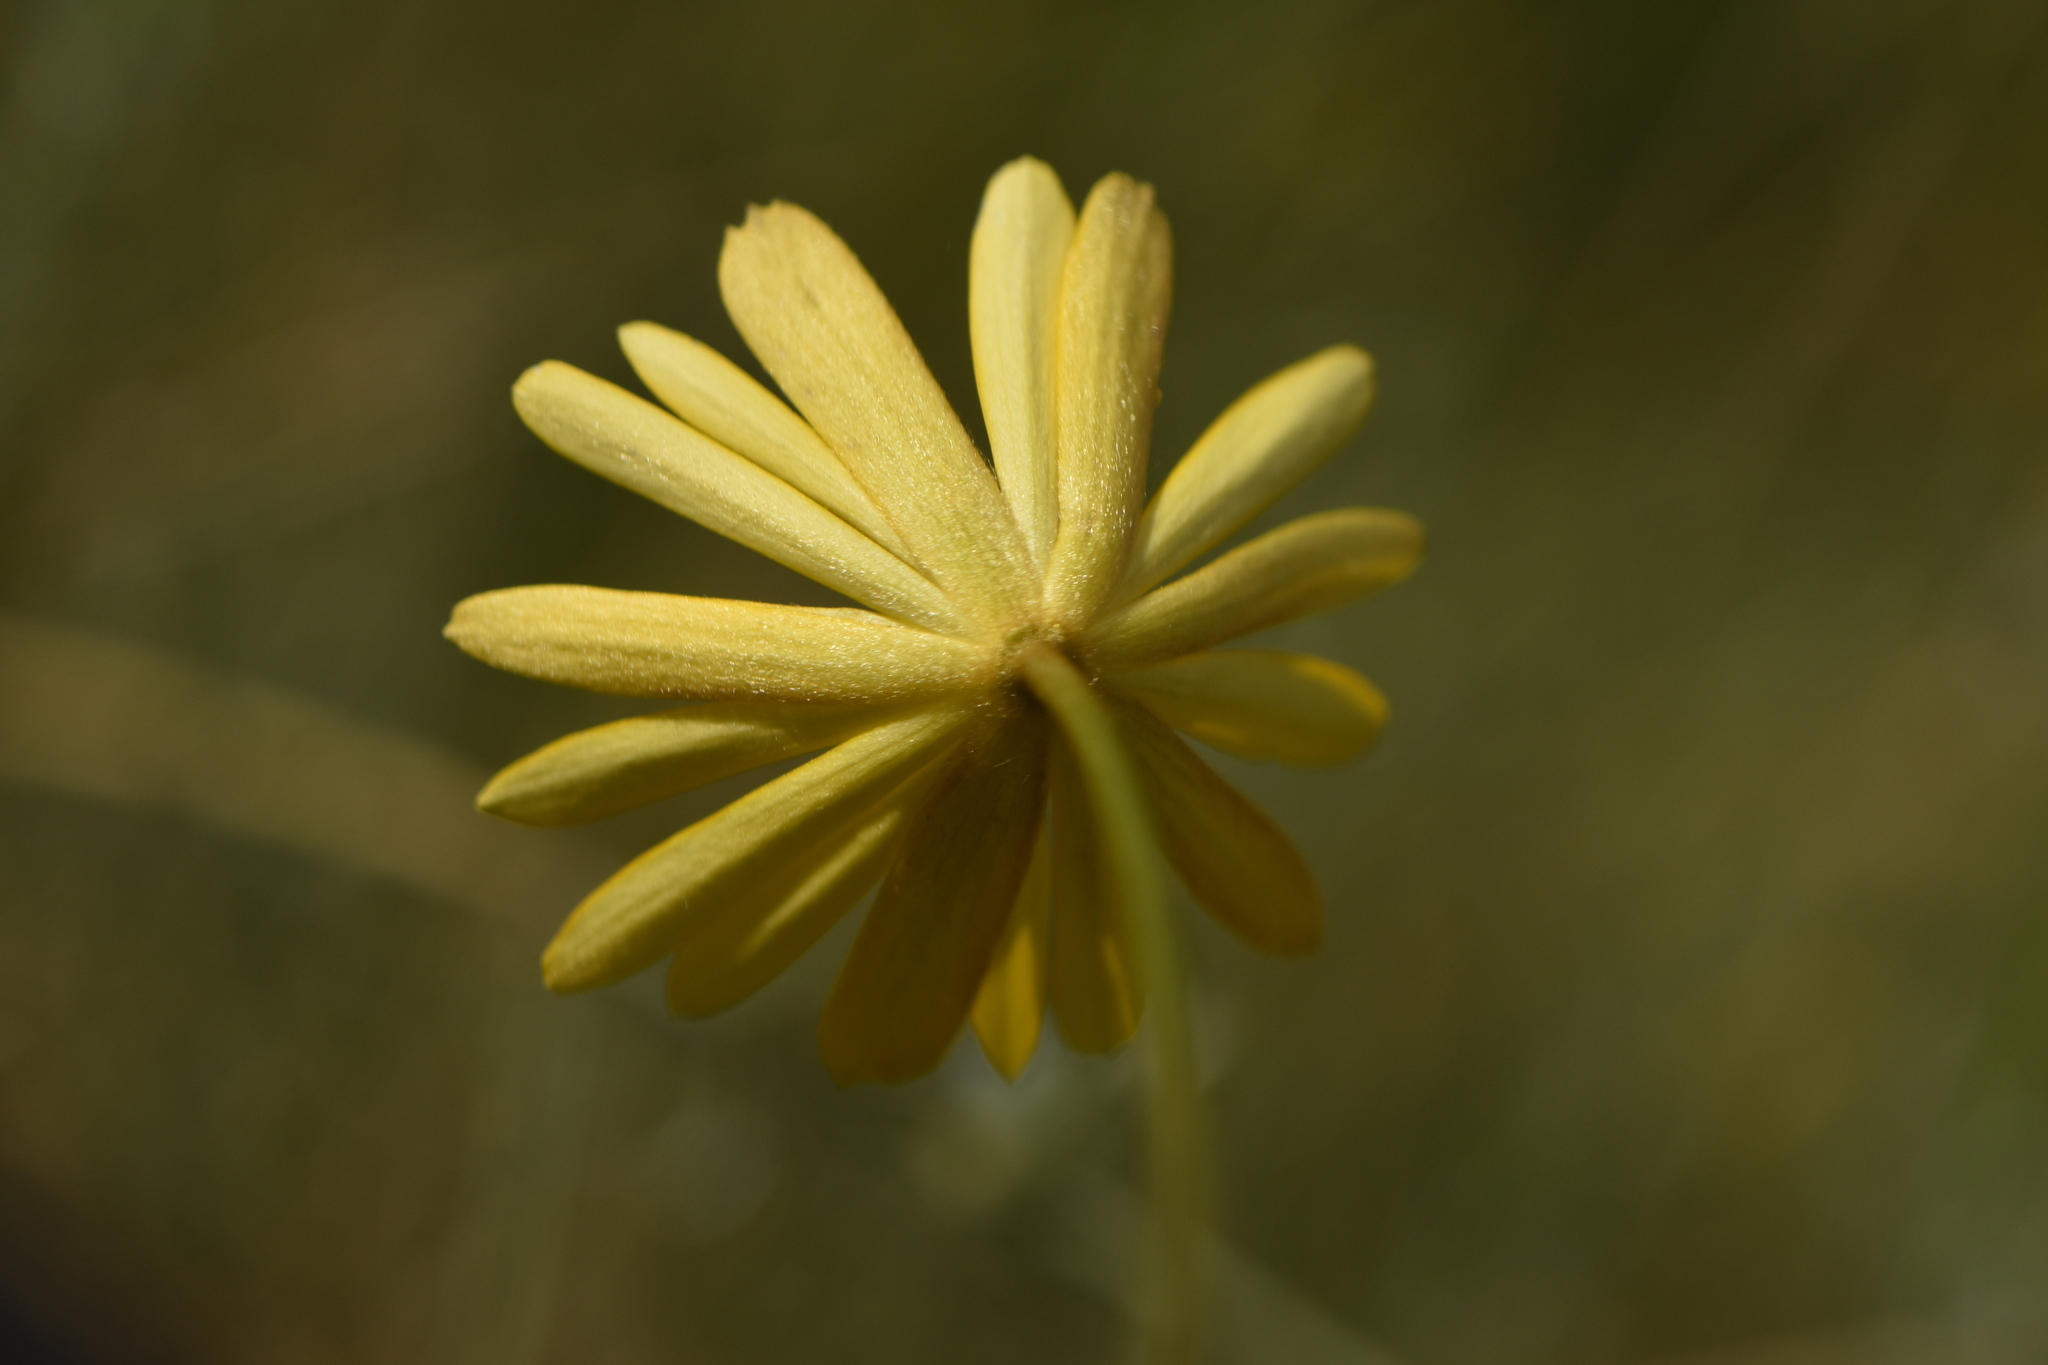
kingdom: Plantae
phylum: Tracheophyta
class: Magnoliopsida
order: Ranunculales
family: Ranunculaceae
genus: Anemone
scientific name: Anemone palmata
